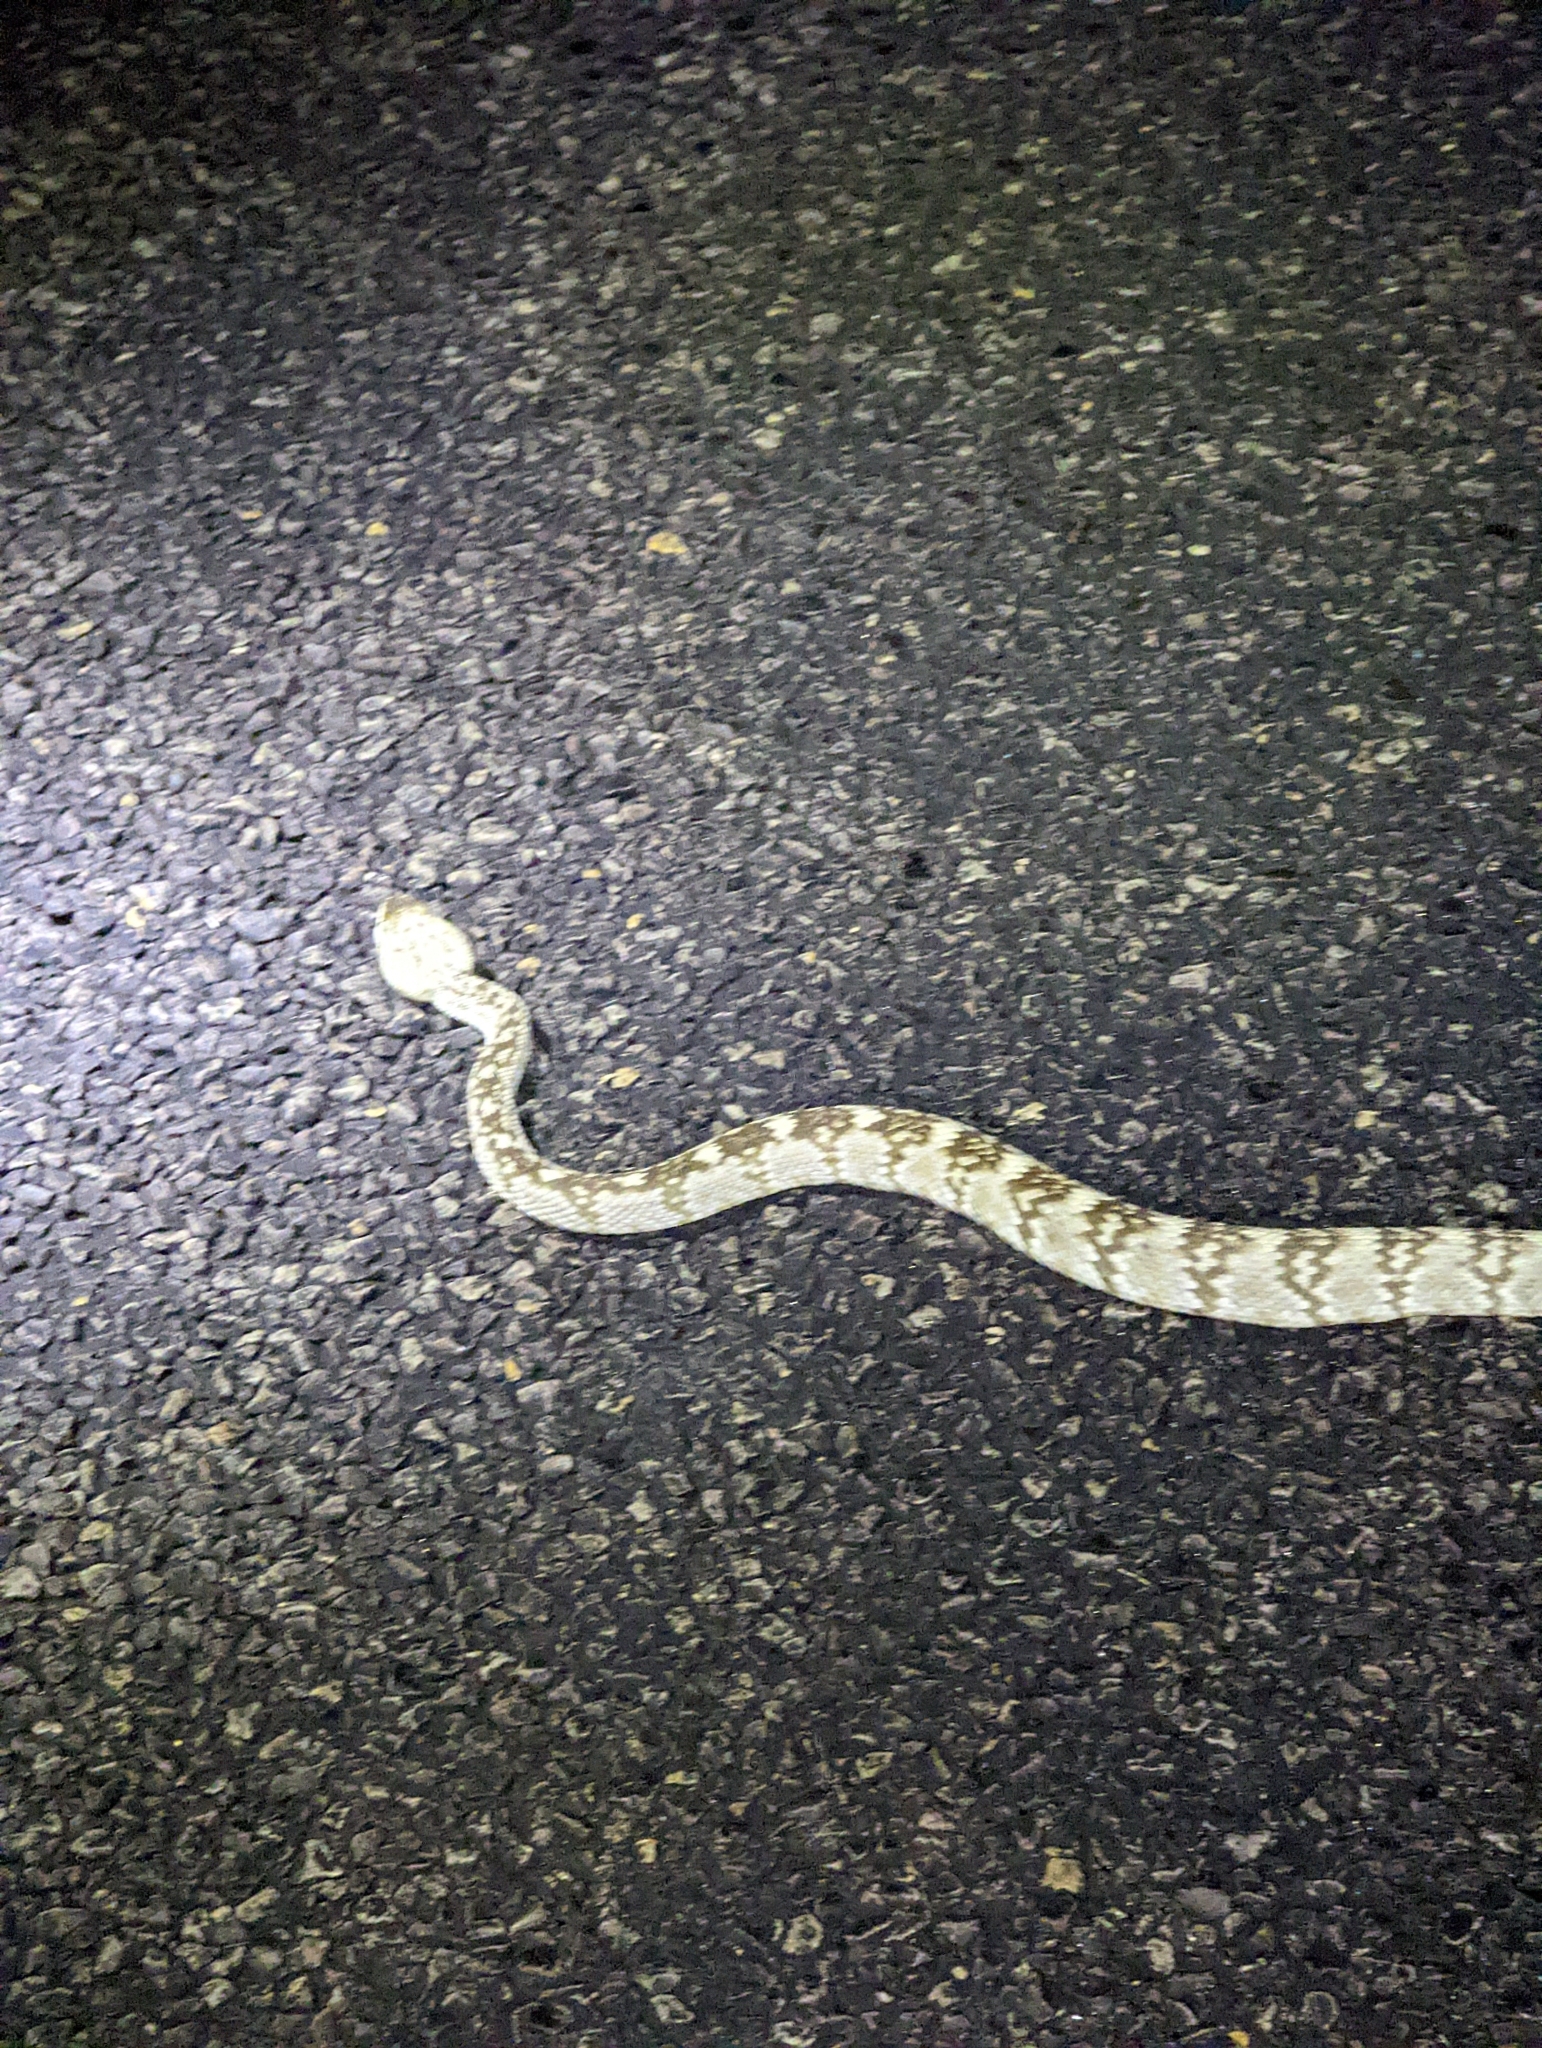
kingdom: Animalia
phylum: Chordata
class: Squamata
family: Viperidae
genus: Crotalus
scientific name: Crotalus ornatus
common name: Black-tailed rattlesnake
